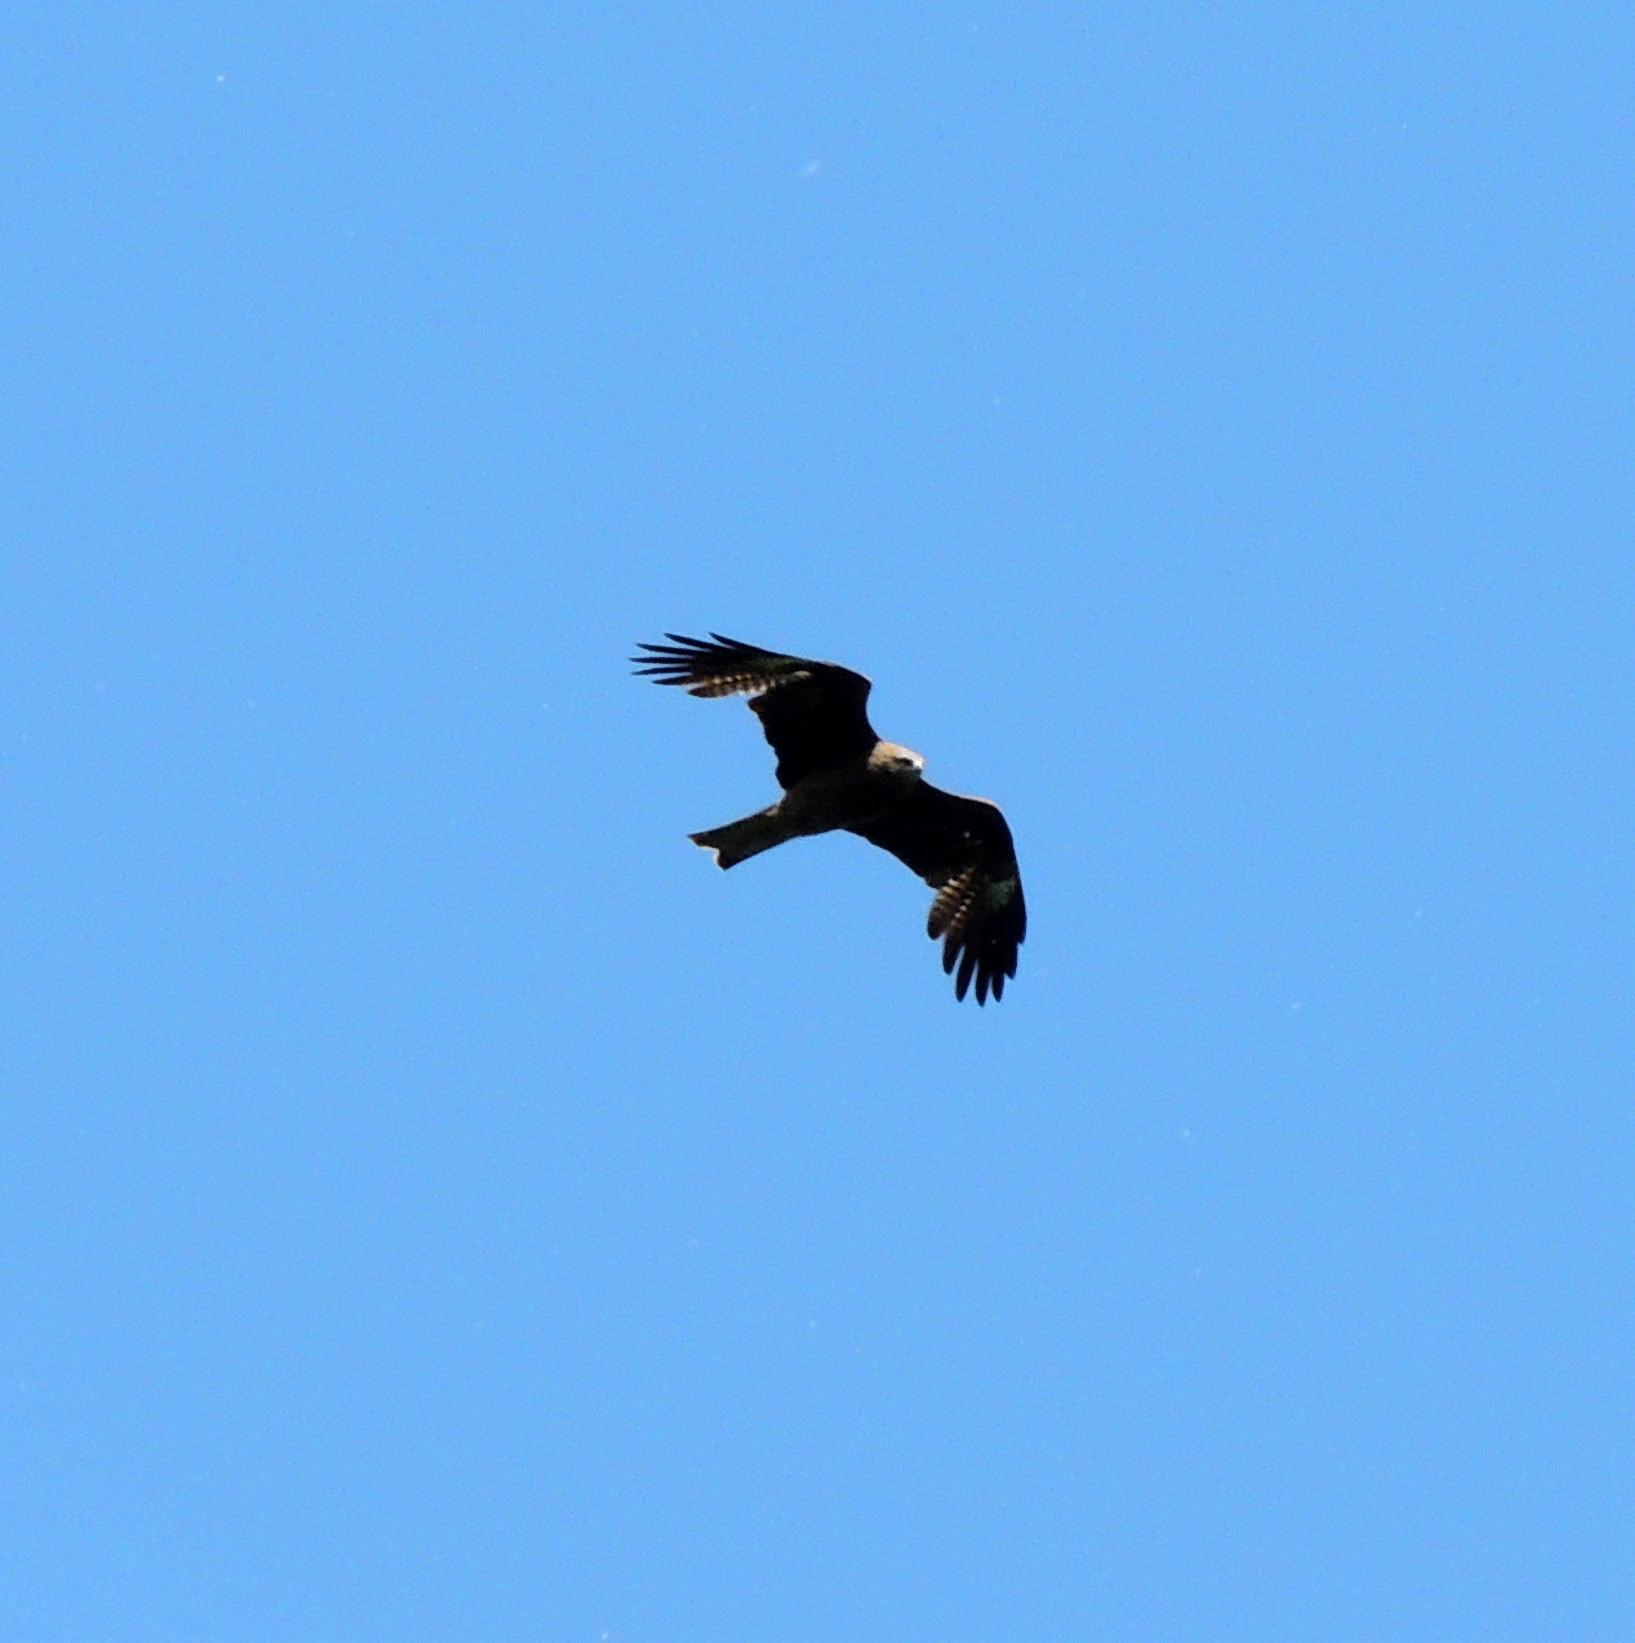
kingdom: Animalia
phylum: Chordata
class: Aves
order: Accipitriformes
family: Accipitridae
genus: Milvus
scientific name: Milvus migrans
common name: Black kite
